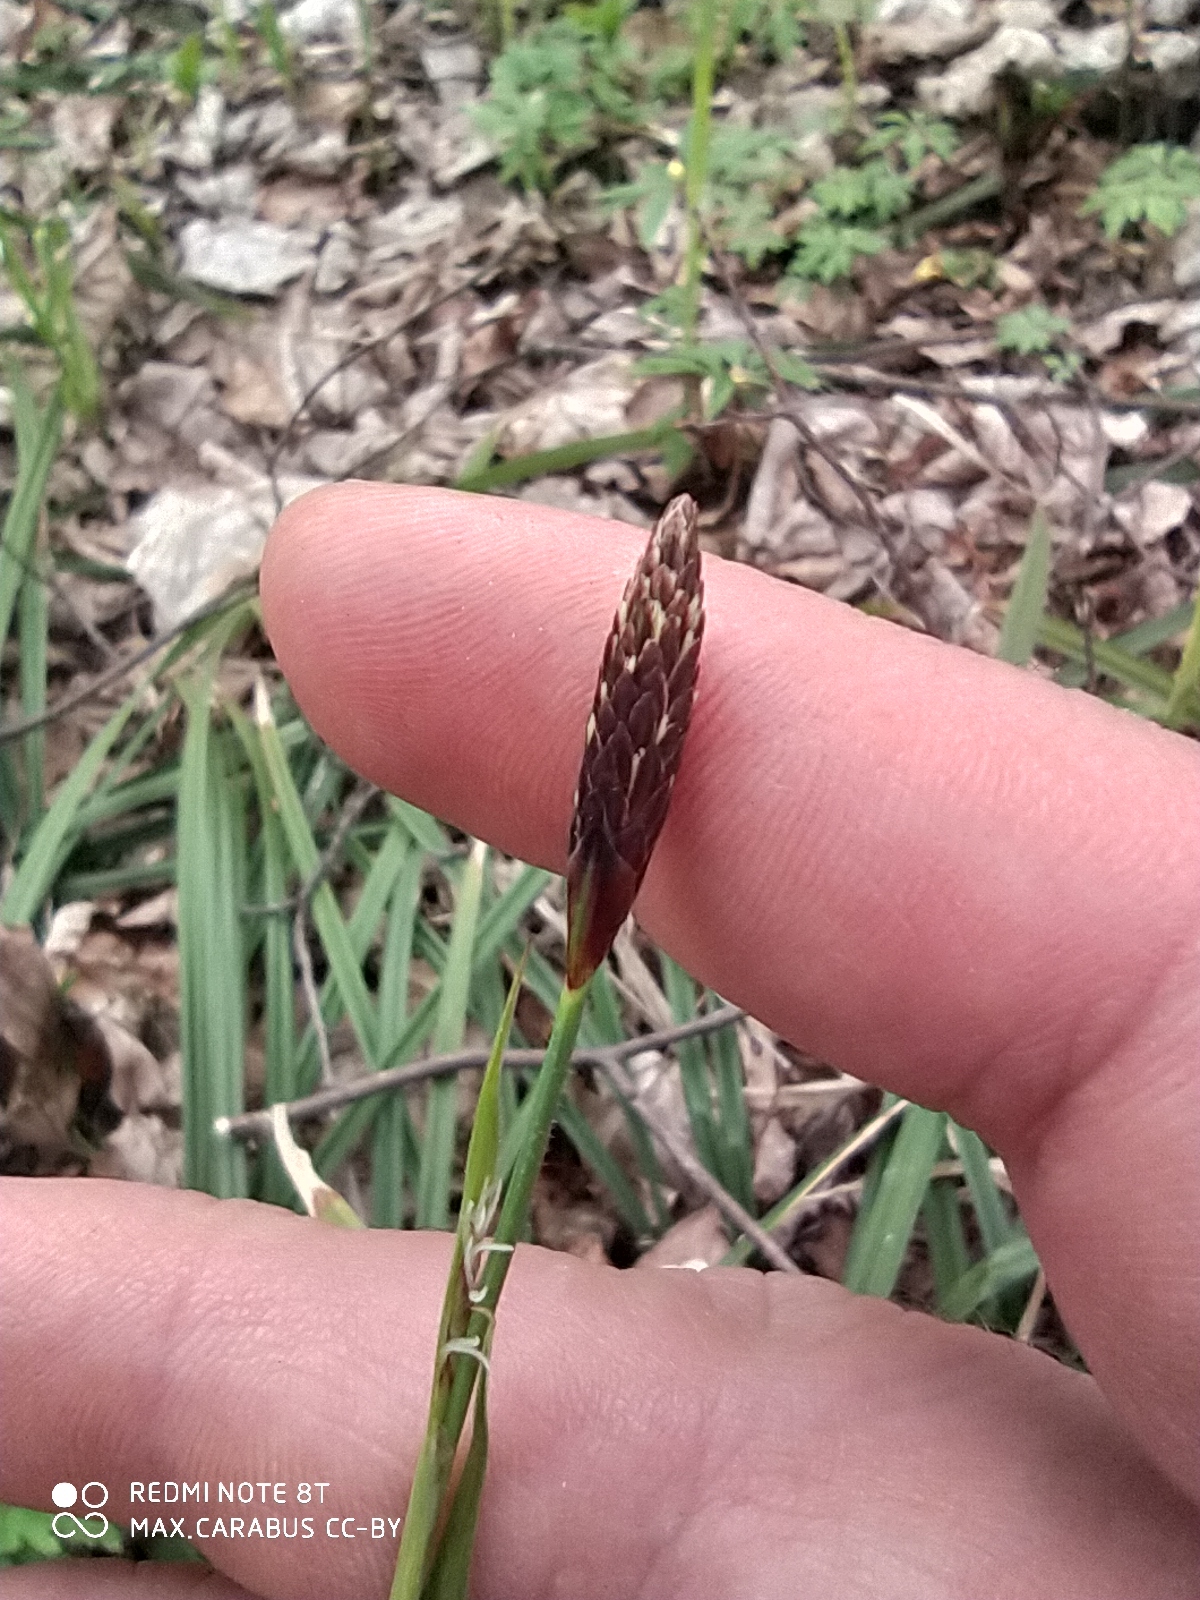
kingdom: Plantae
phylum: Tracheophyta
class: Liliopsida
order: Poales
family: Cyperaceae
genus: Carex
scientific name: Carex pilosa
